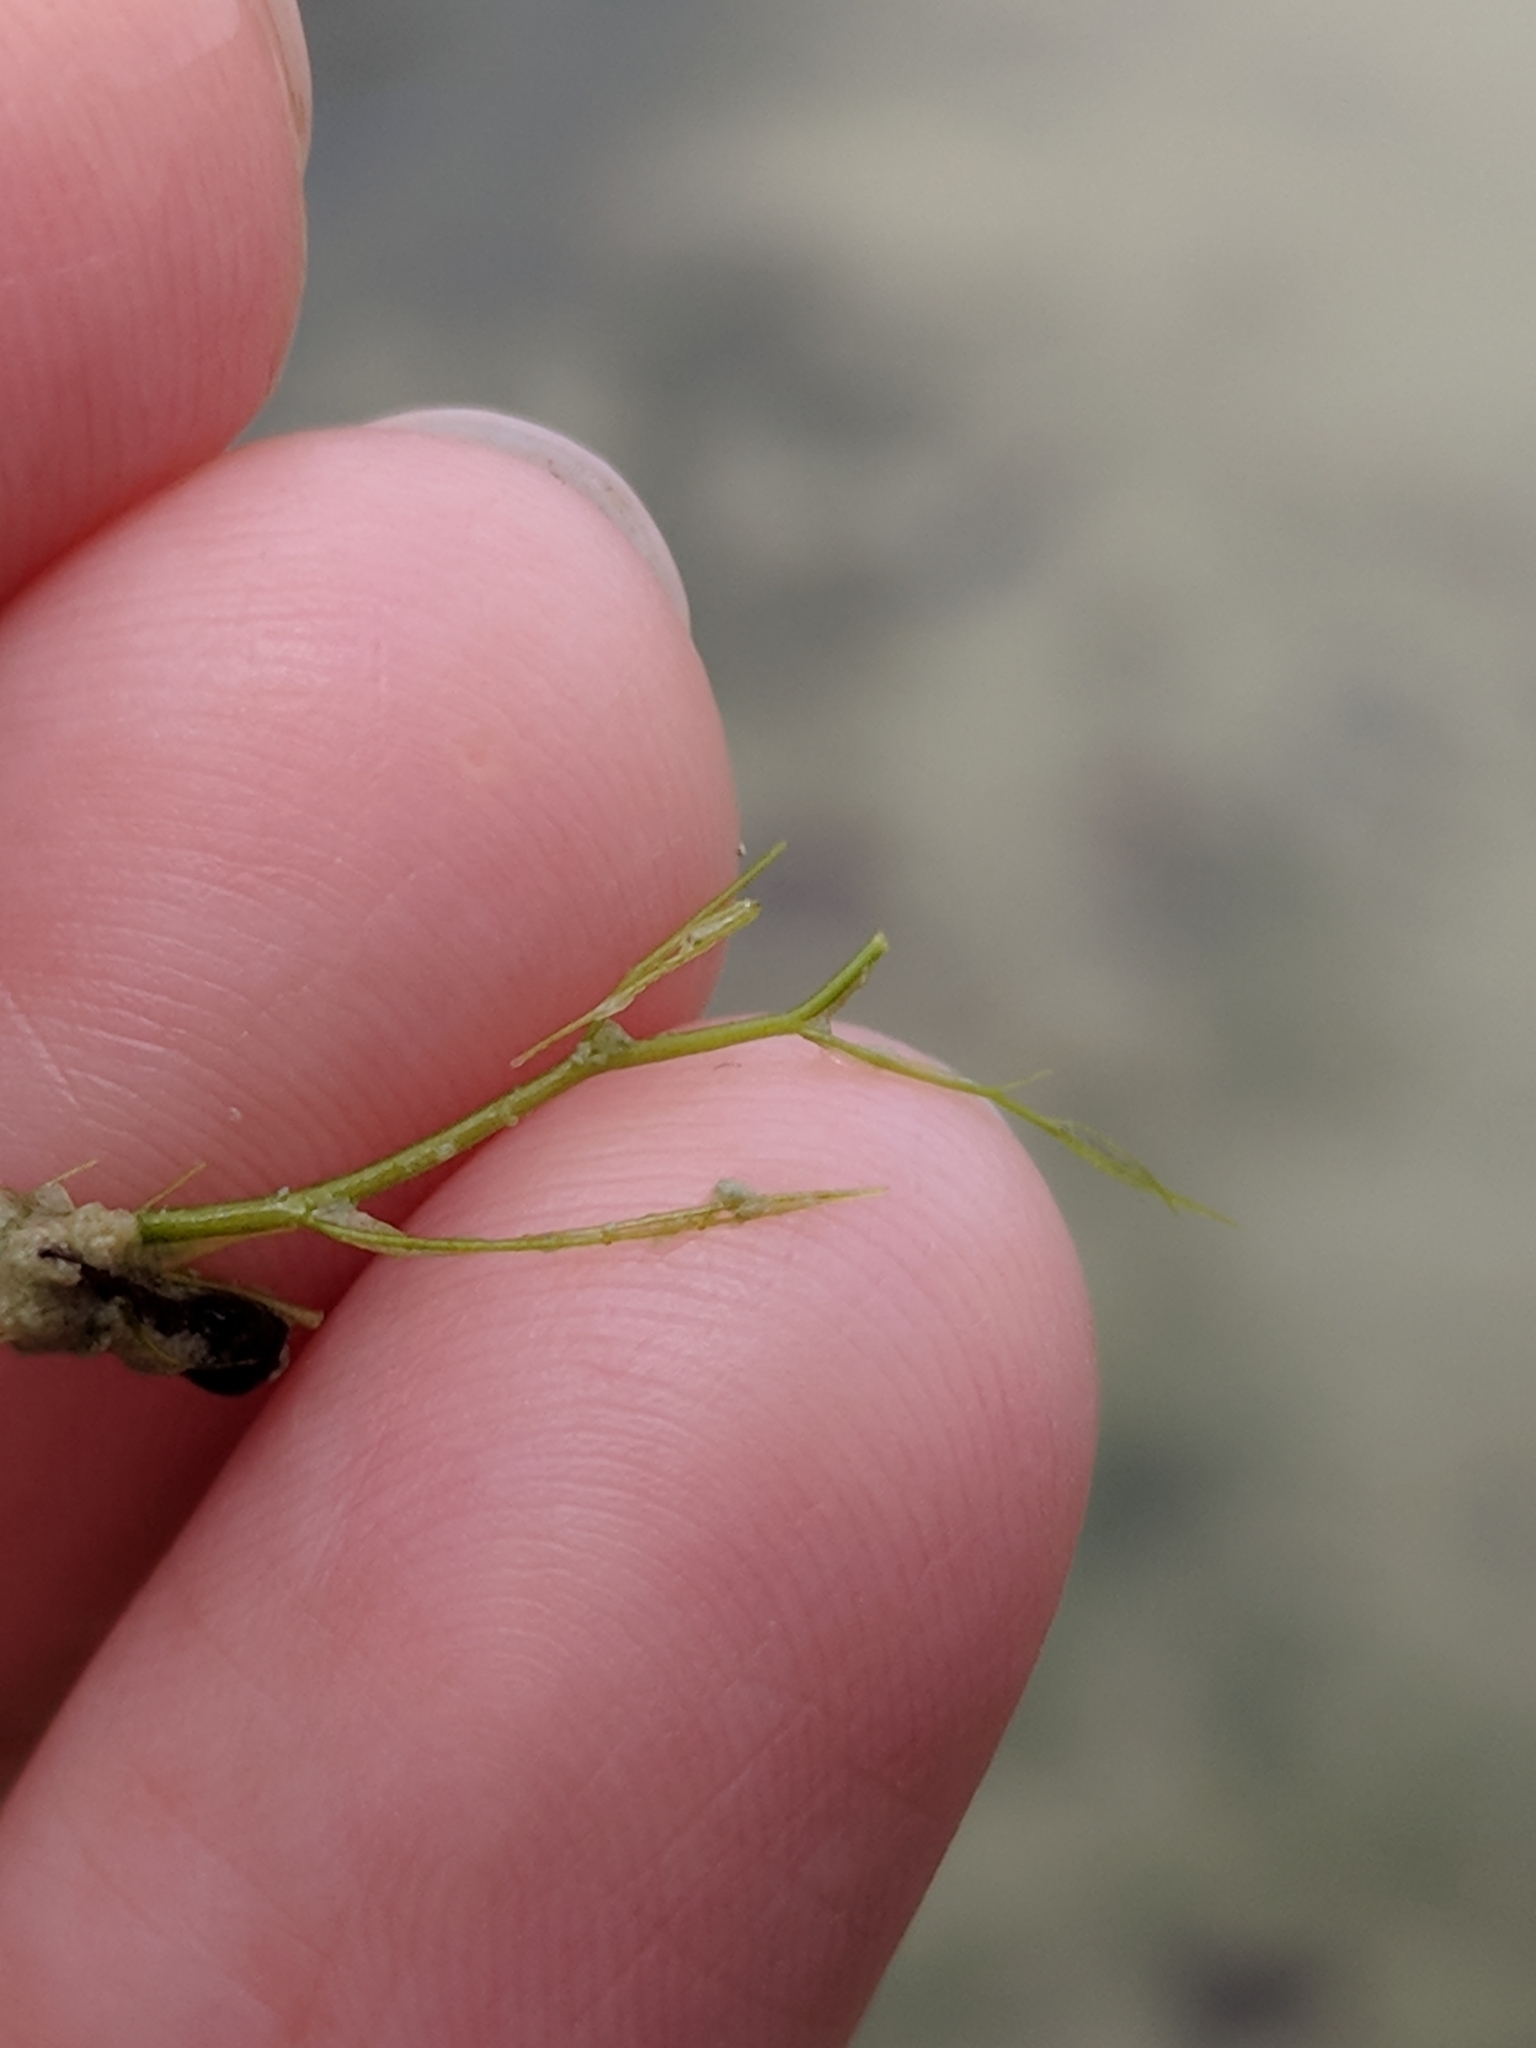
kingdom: Plantae
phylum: Tracheophyta
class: Magnoliopsida
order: Lamiales
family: Lentibulariaceae
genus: Utricularia
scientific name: Utricularia gibba
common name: Humped bladderwort
